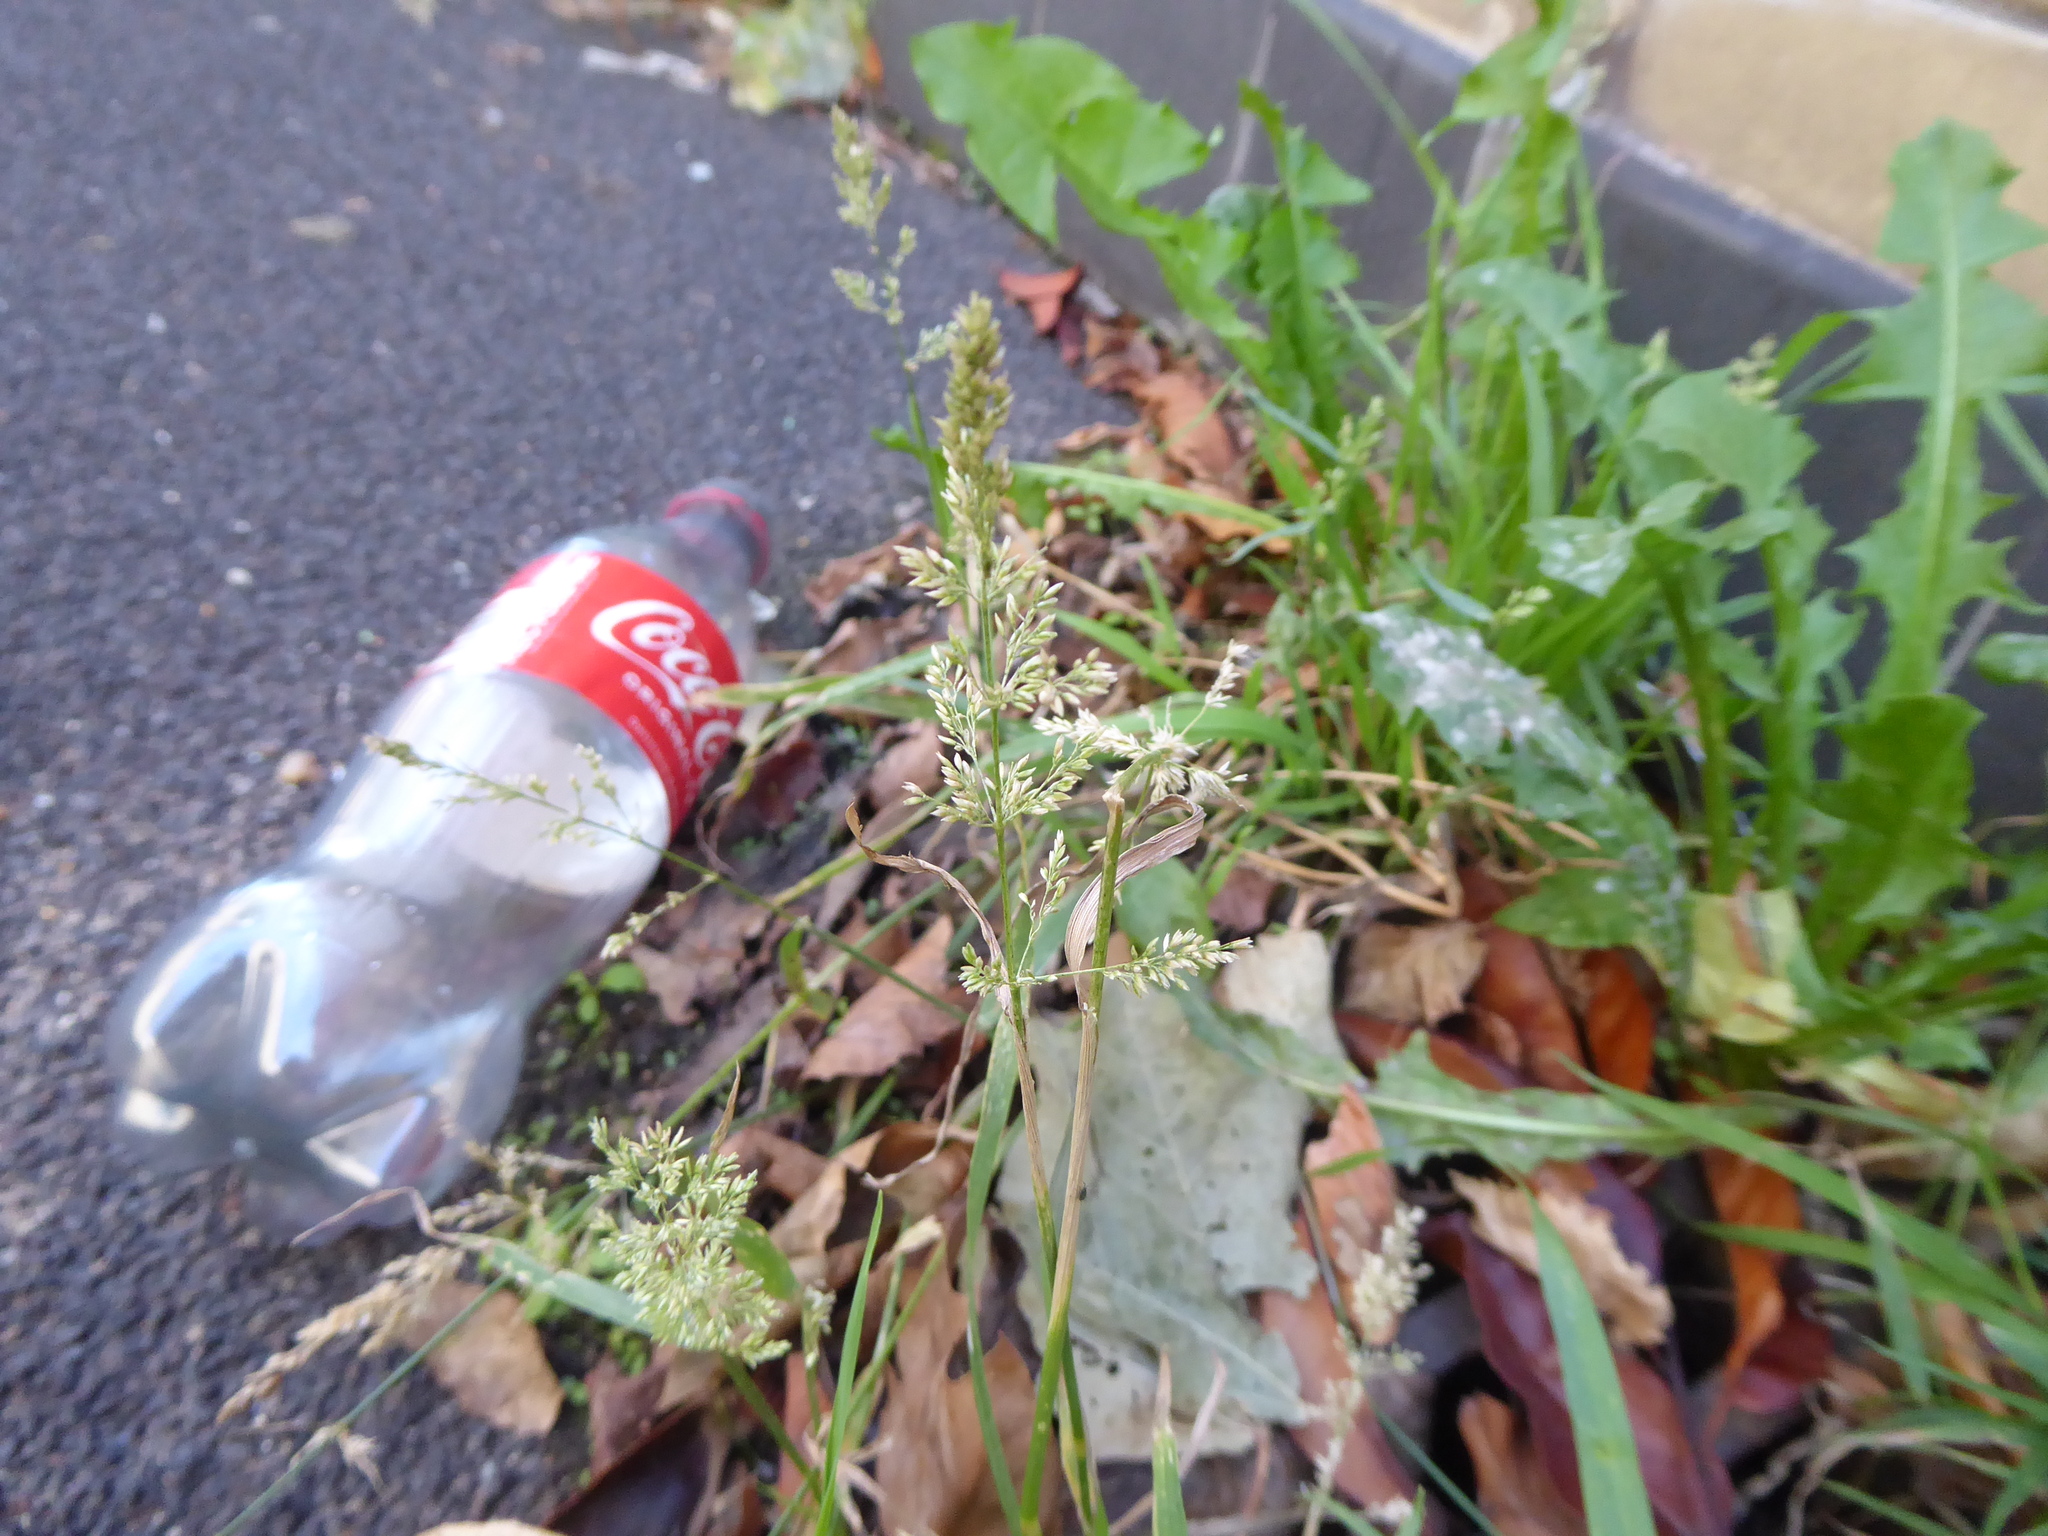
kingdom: Plantae
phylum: Tracheophyta
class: Liliopsida
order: Poales
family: Poaceae
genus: Polypogon
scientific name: Polypogon viridis
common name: Water bent
